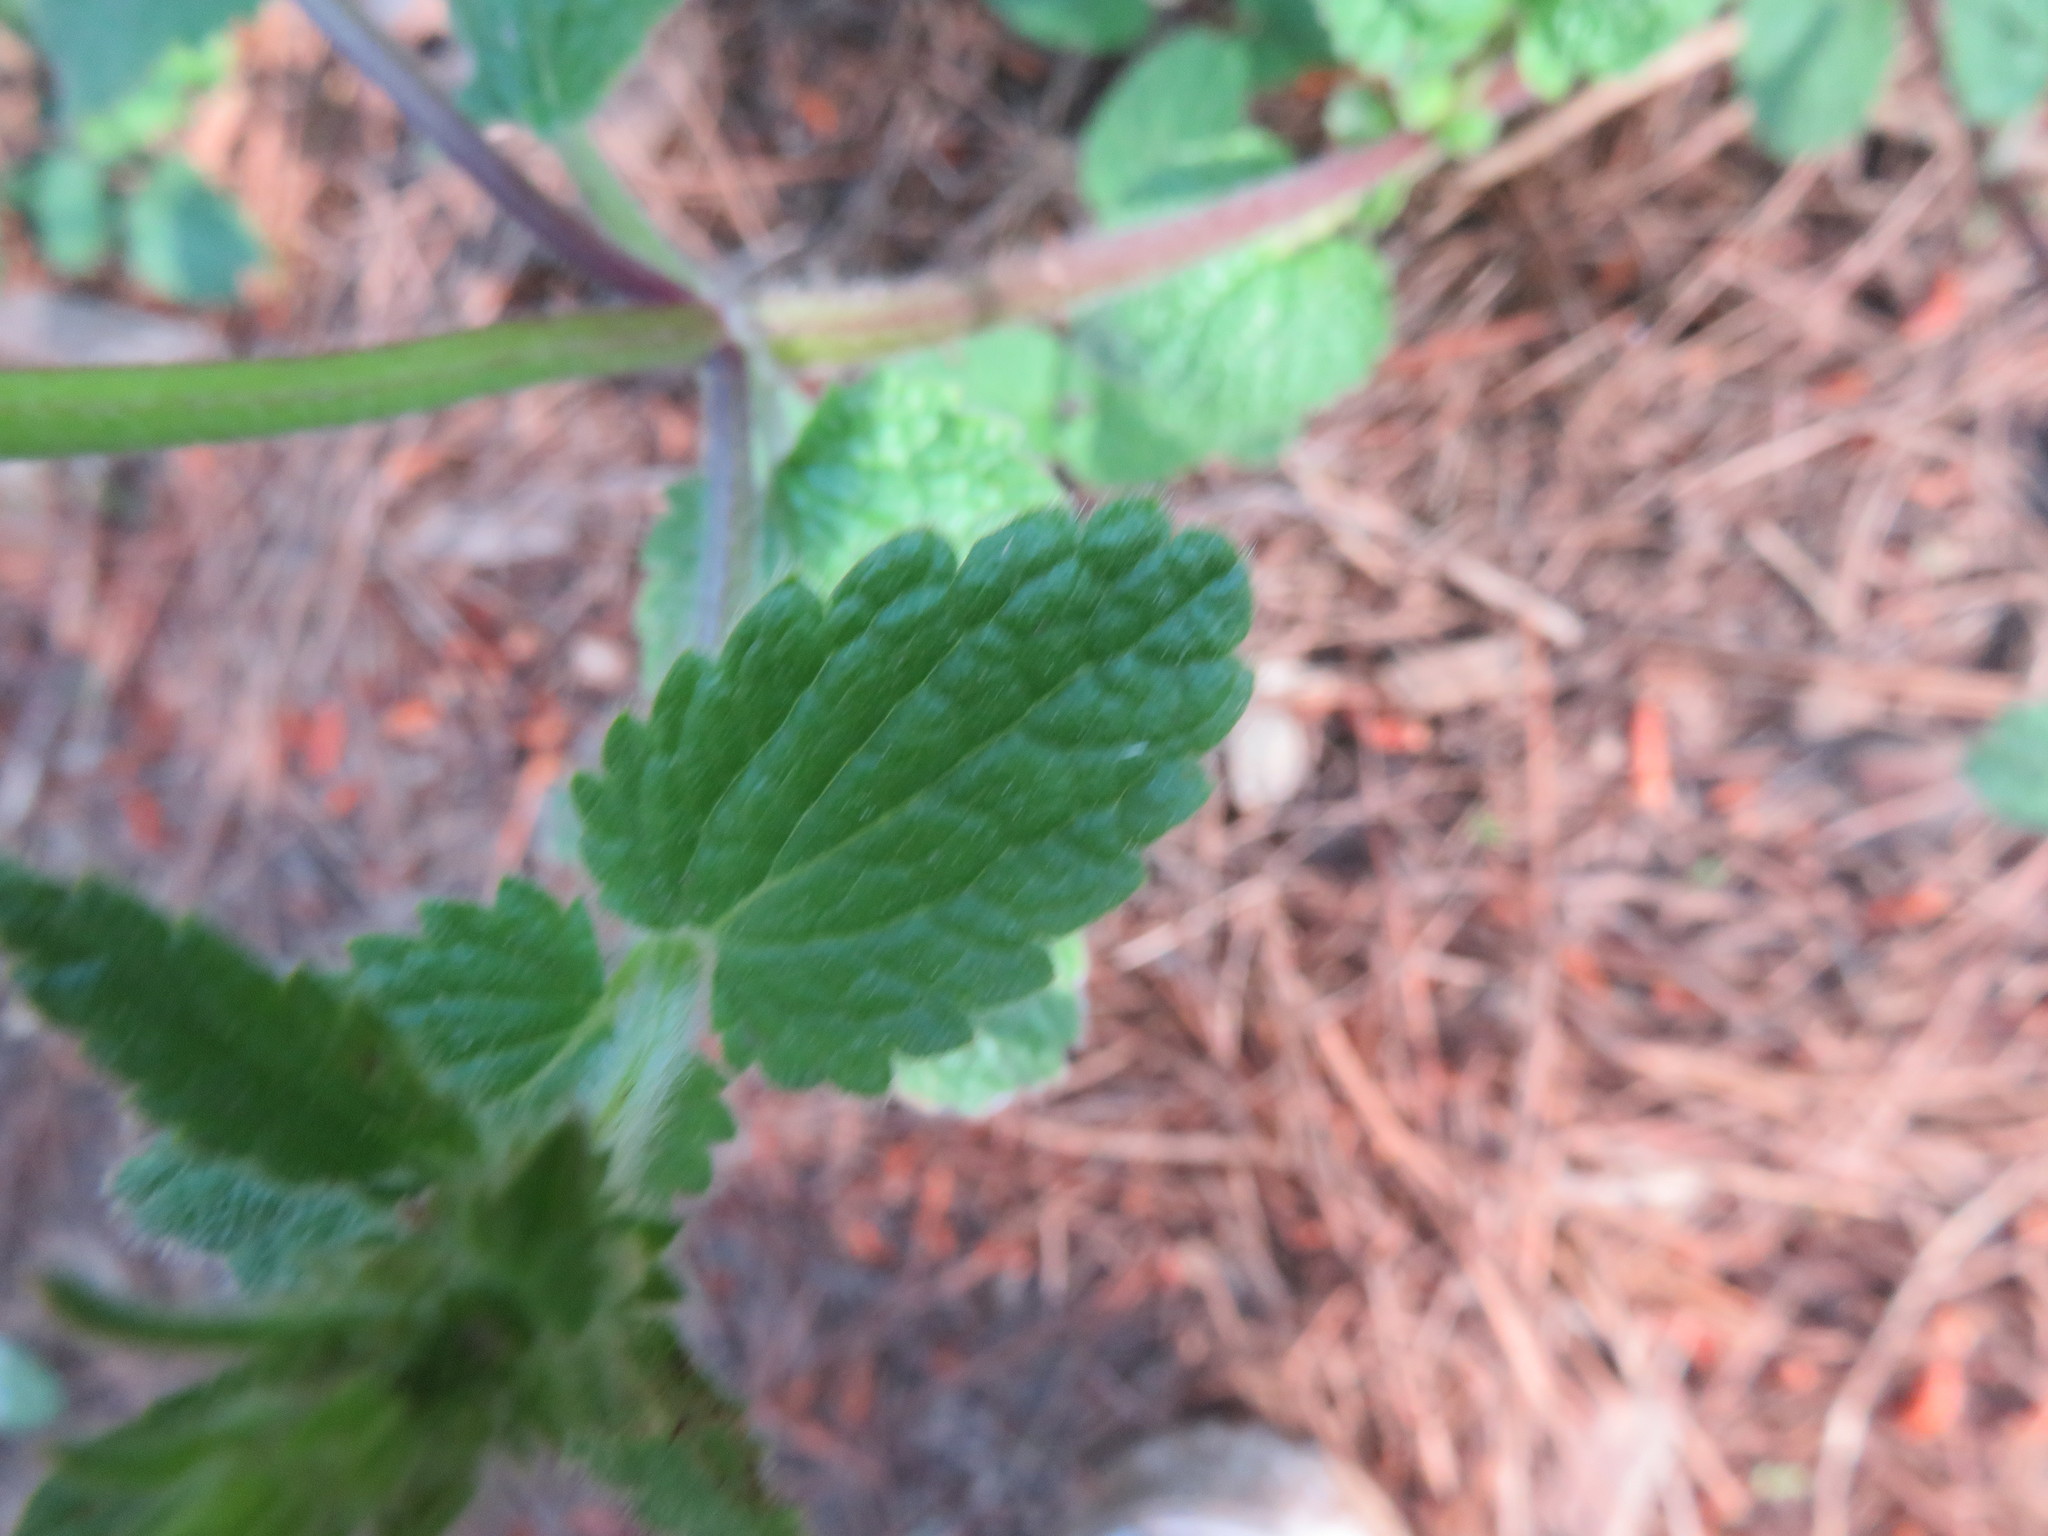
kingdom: Plantae
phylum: Tracheophyta
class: Magnoliopsida
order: Lamiales
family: Lamiaceae
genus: Stachys
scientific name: Stachys grandidentata
